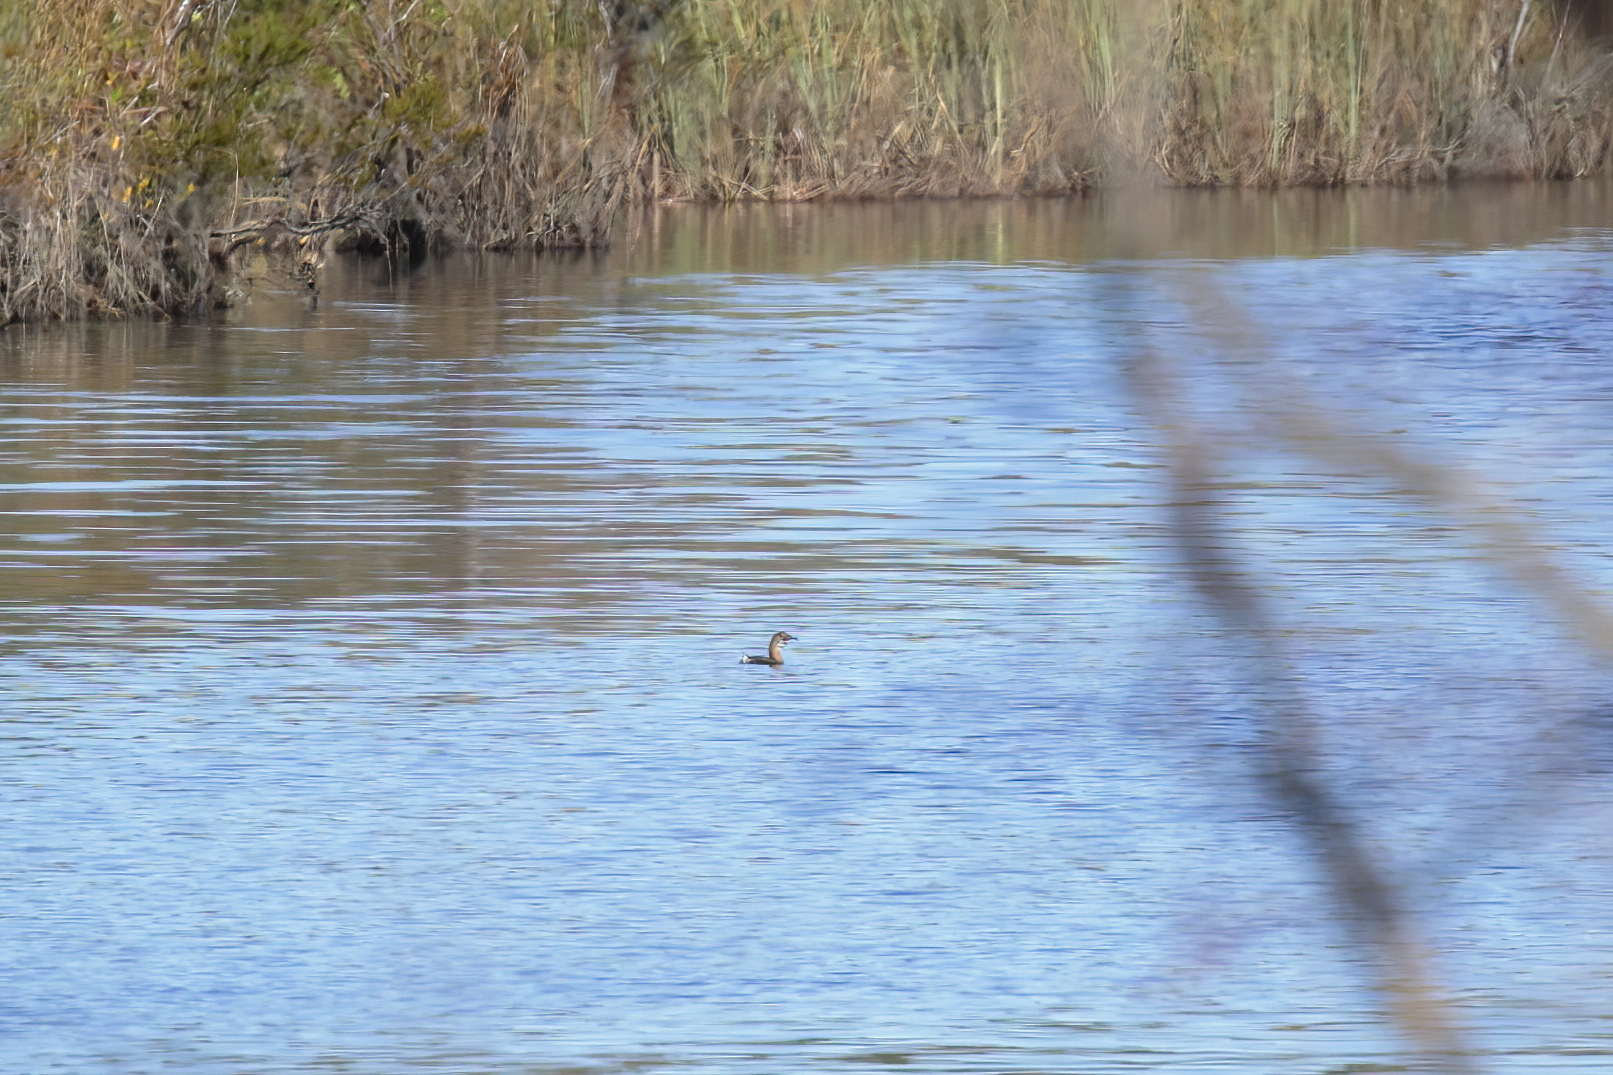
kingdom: Animalia
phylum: Chordata
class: Aves
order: Podicipediformes
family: Podicipedidae
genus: Podilymbus
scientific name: Podilymbus podiceps
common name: Pied-billed grebe
